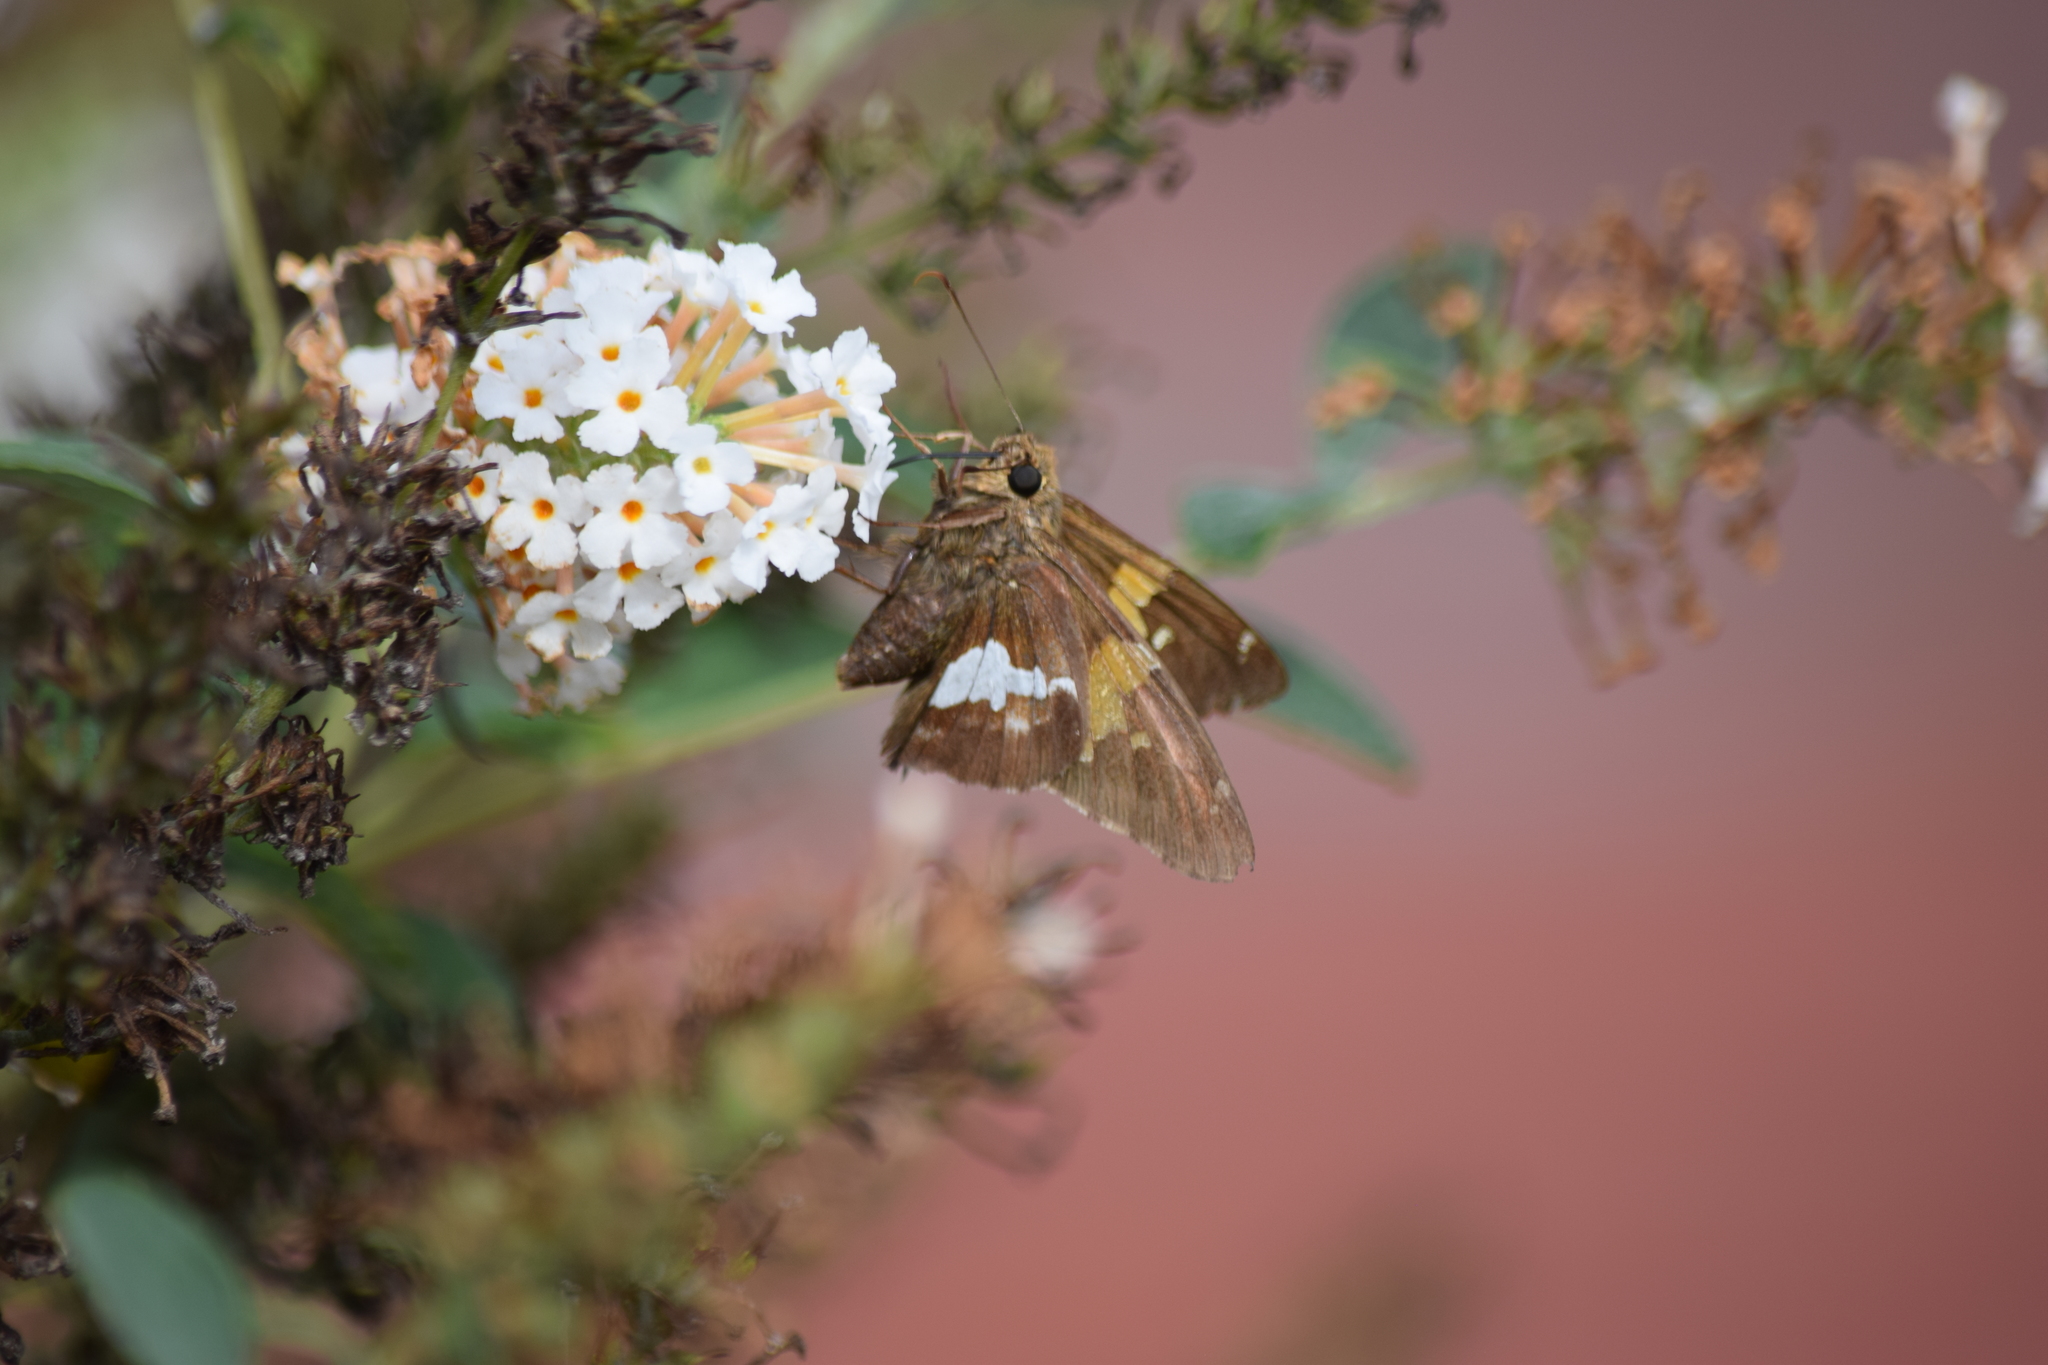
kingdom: Animalia
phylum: Arthropoda
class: Insecta
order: Lepidoptera
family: Hesperiidae
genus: Epargyreus
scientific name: Epargyreus clarus
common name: Silver-spotted skipper
